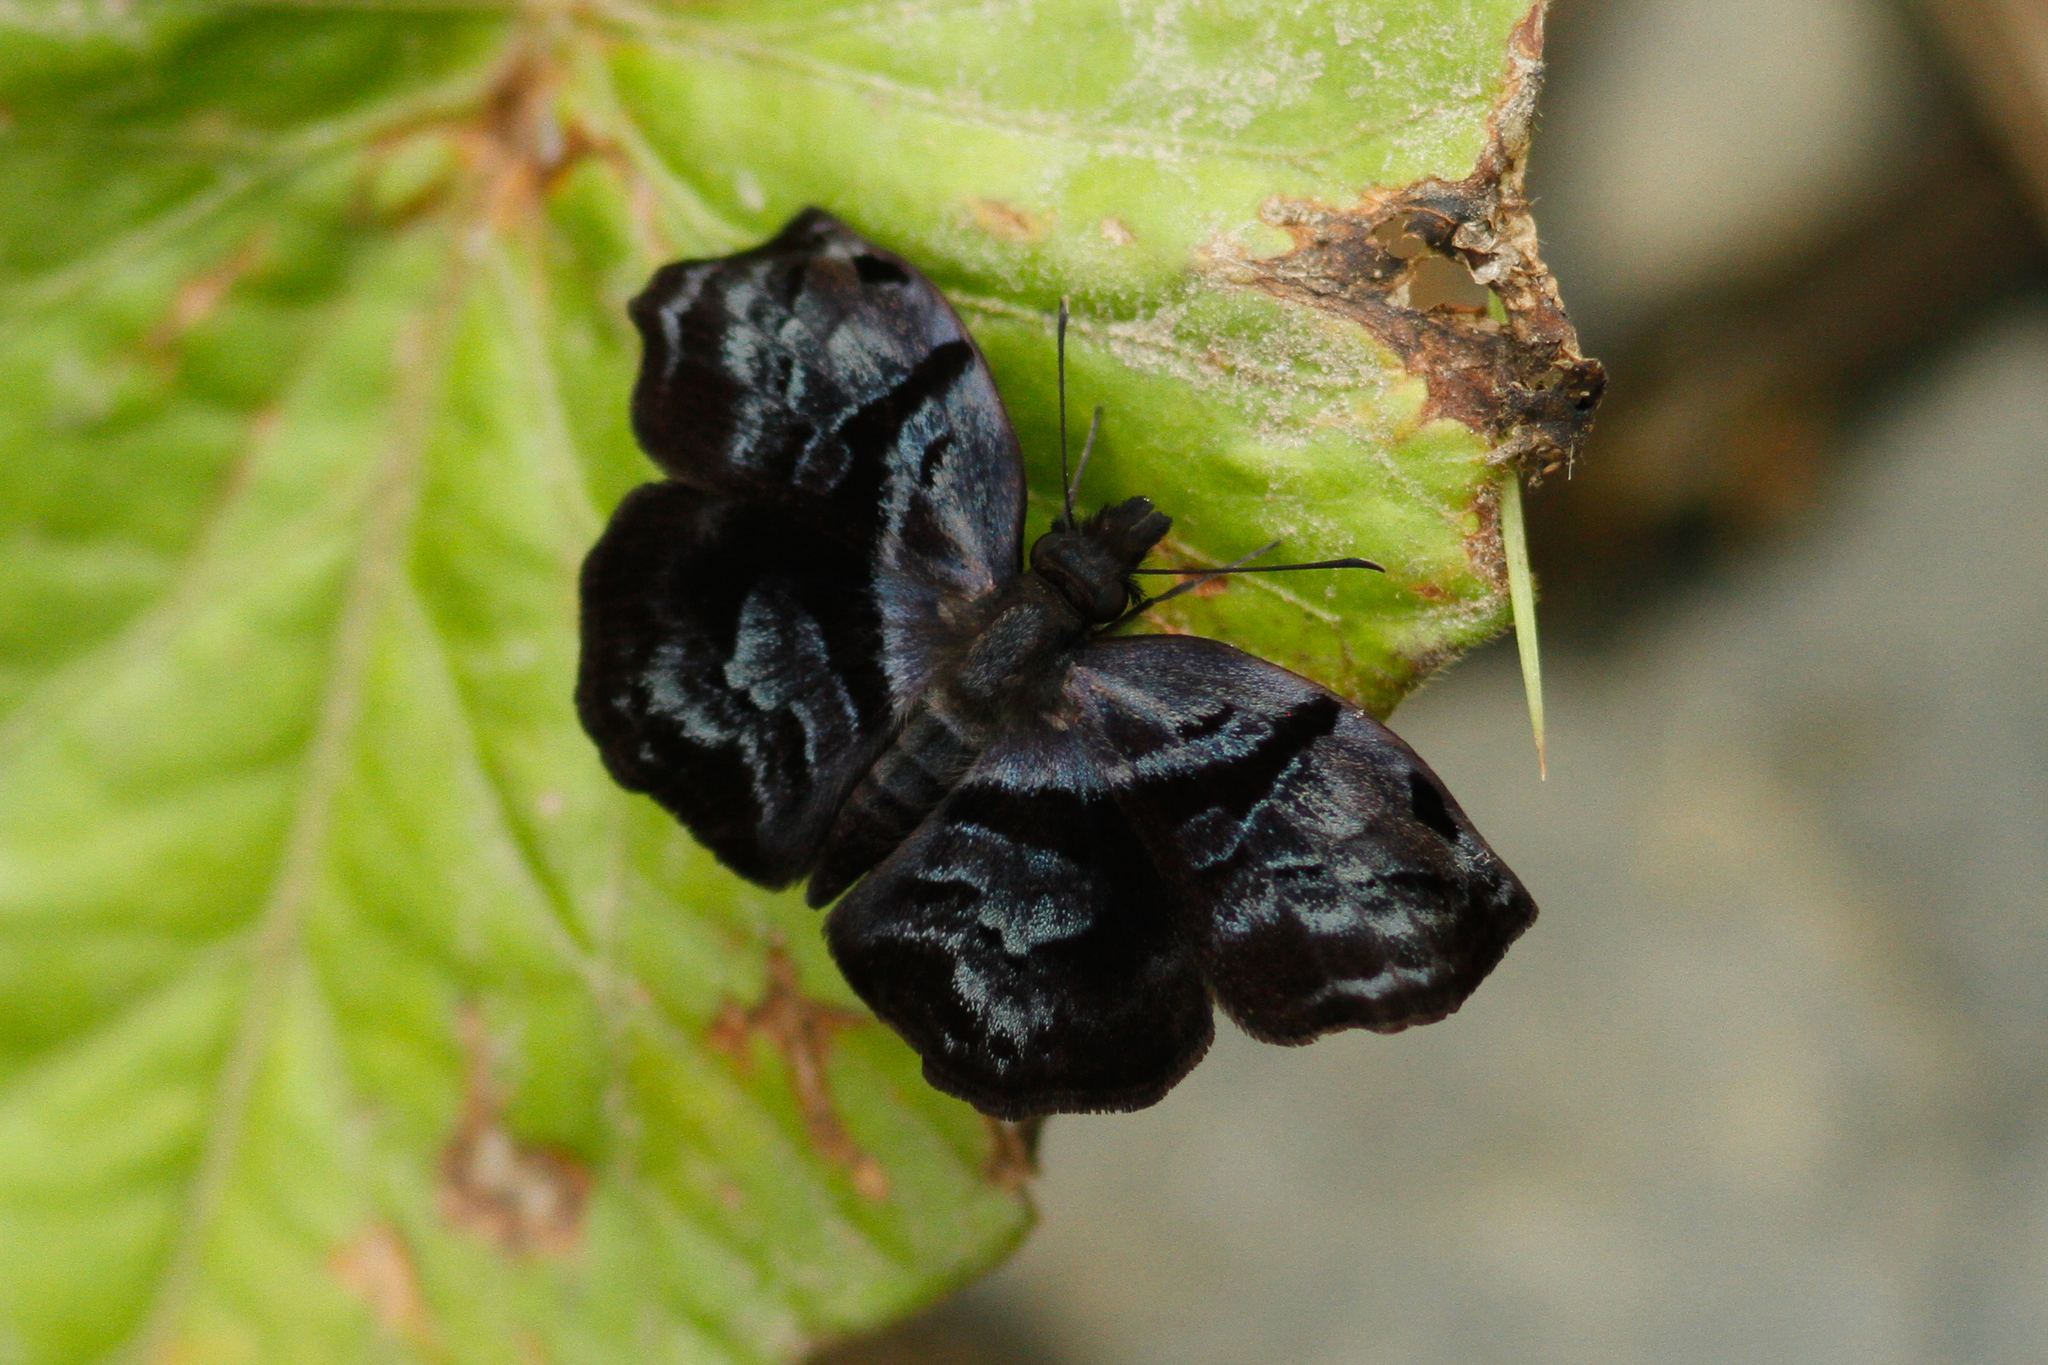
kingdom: Animalia
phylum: Arthropoda
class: Insecta
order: Lepidoptera
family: Hesperiidae
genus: Helias
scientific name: Helias phalaenoides
